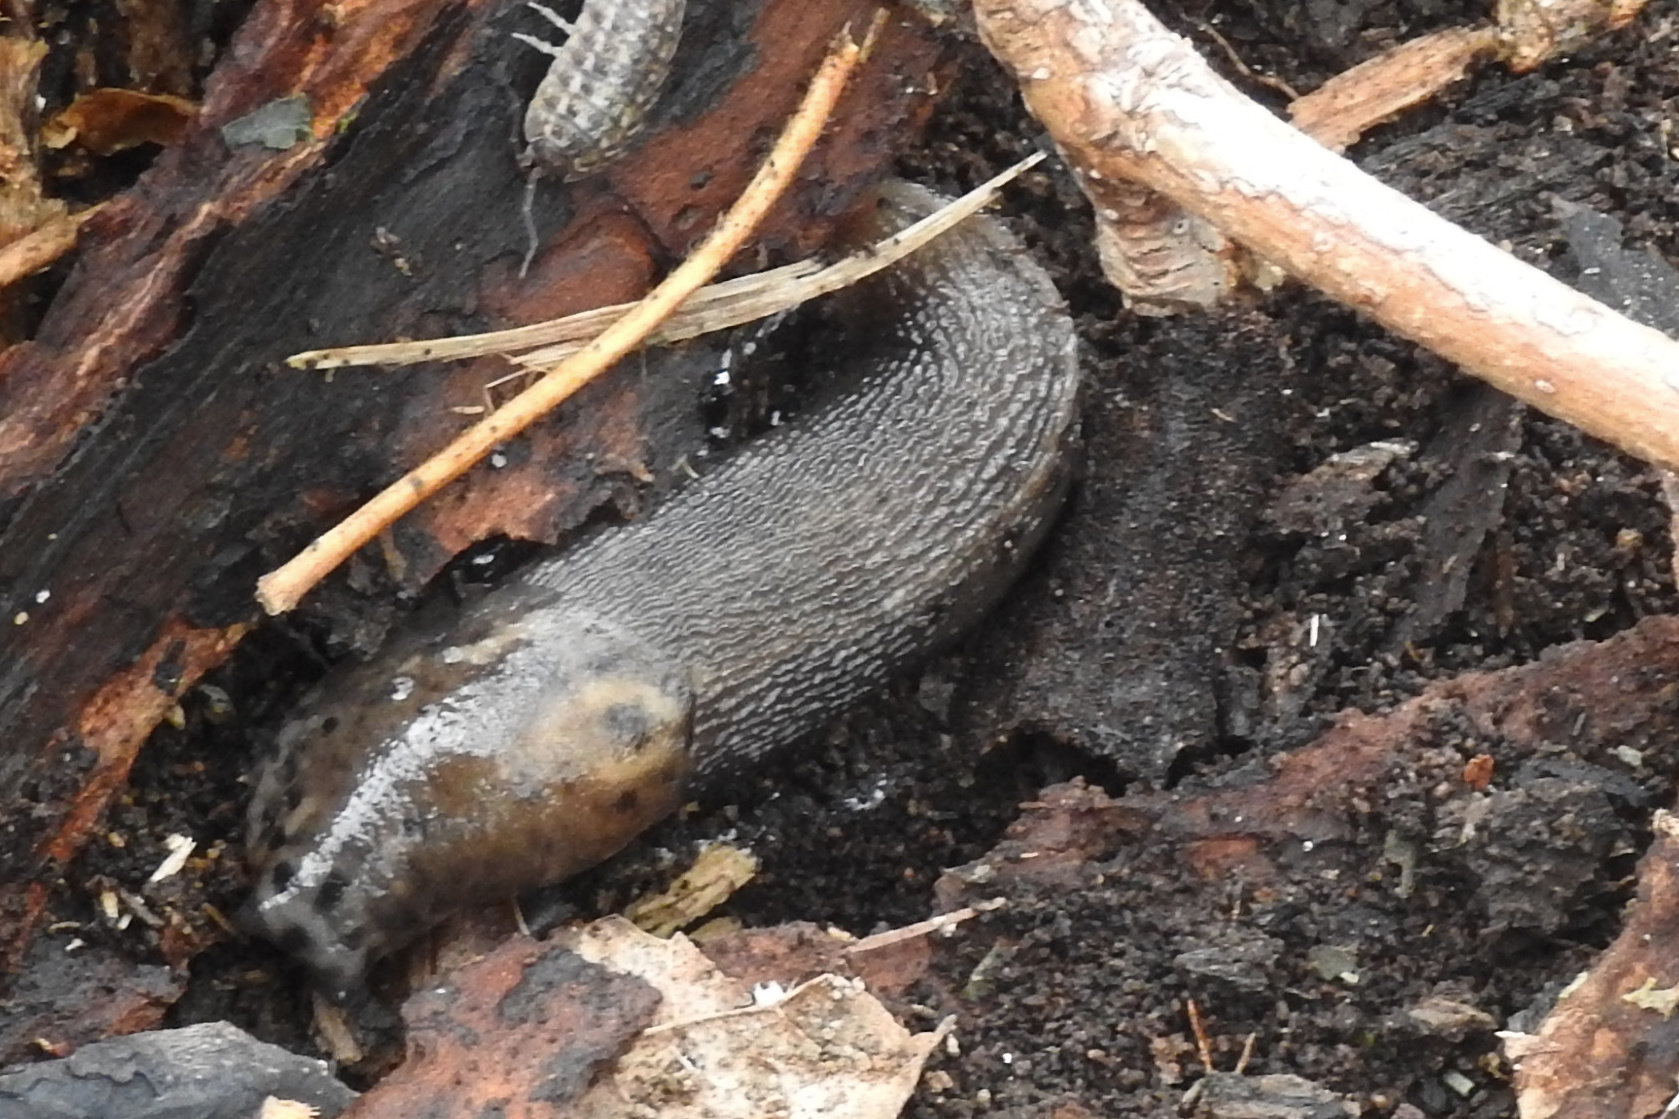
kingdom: Animalia
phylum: Mollusca
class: Gastropoda
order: Stylommatophora
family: Limacidae
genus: Limax
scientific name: Limax maximus
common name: Great grey slug
